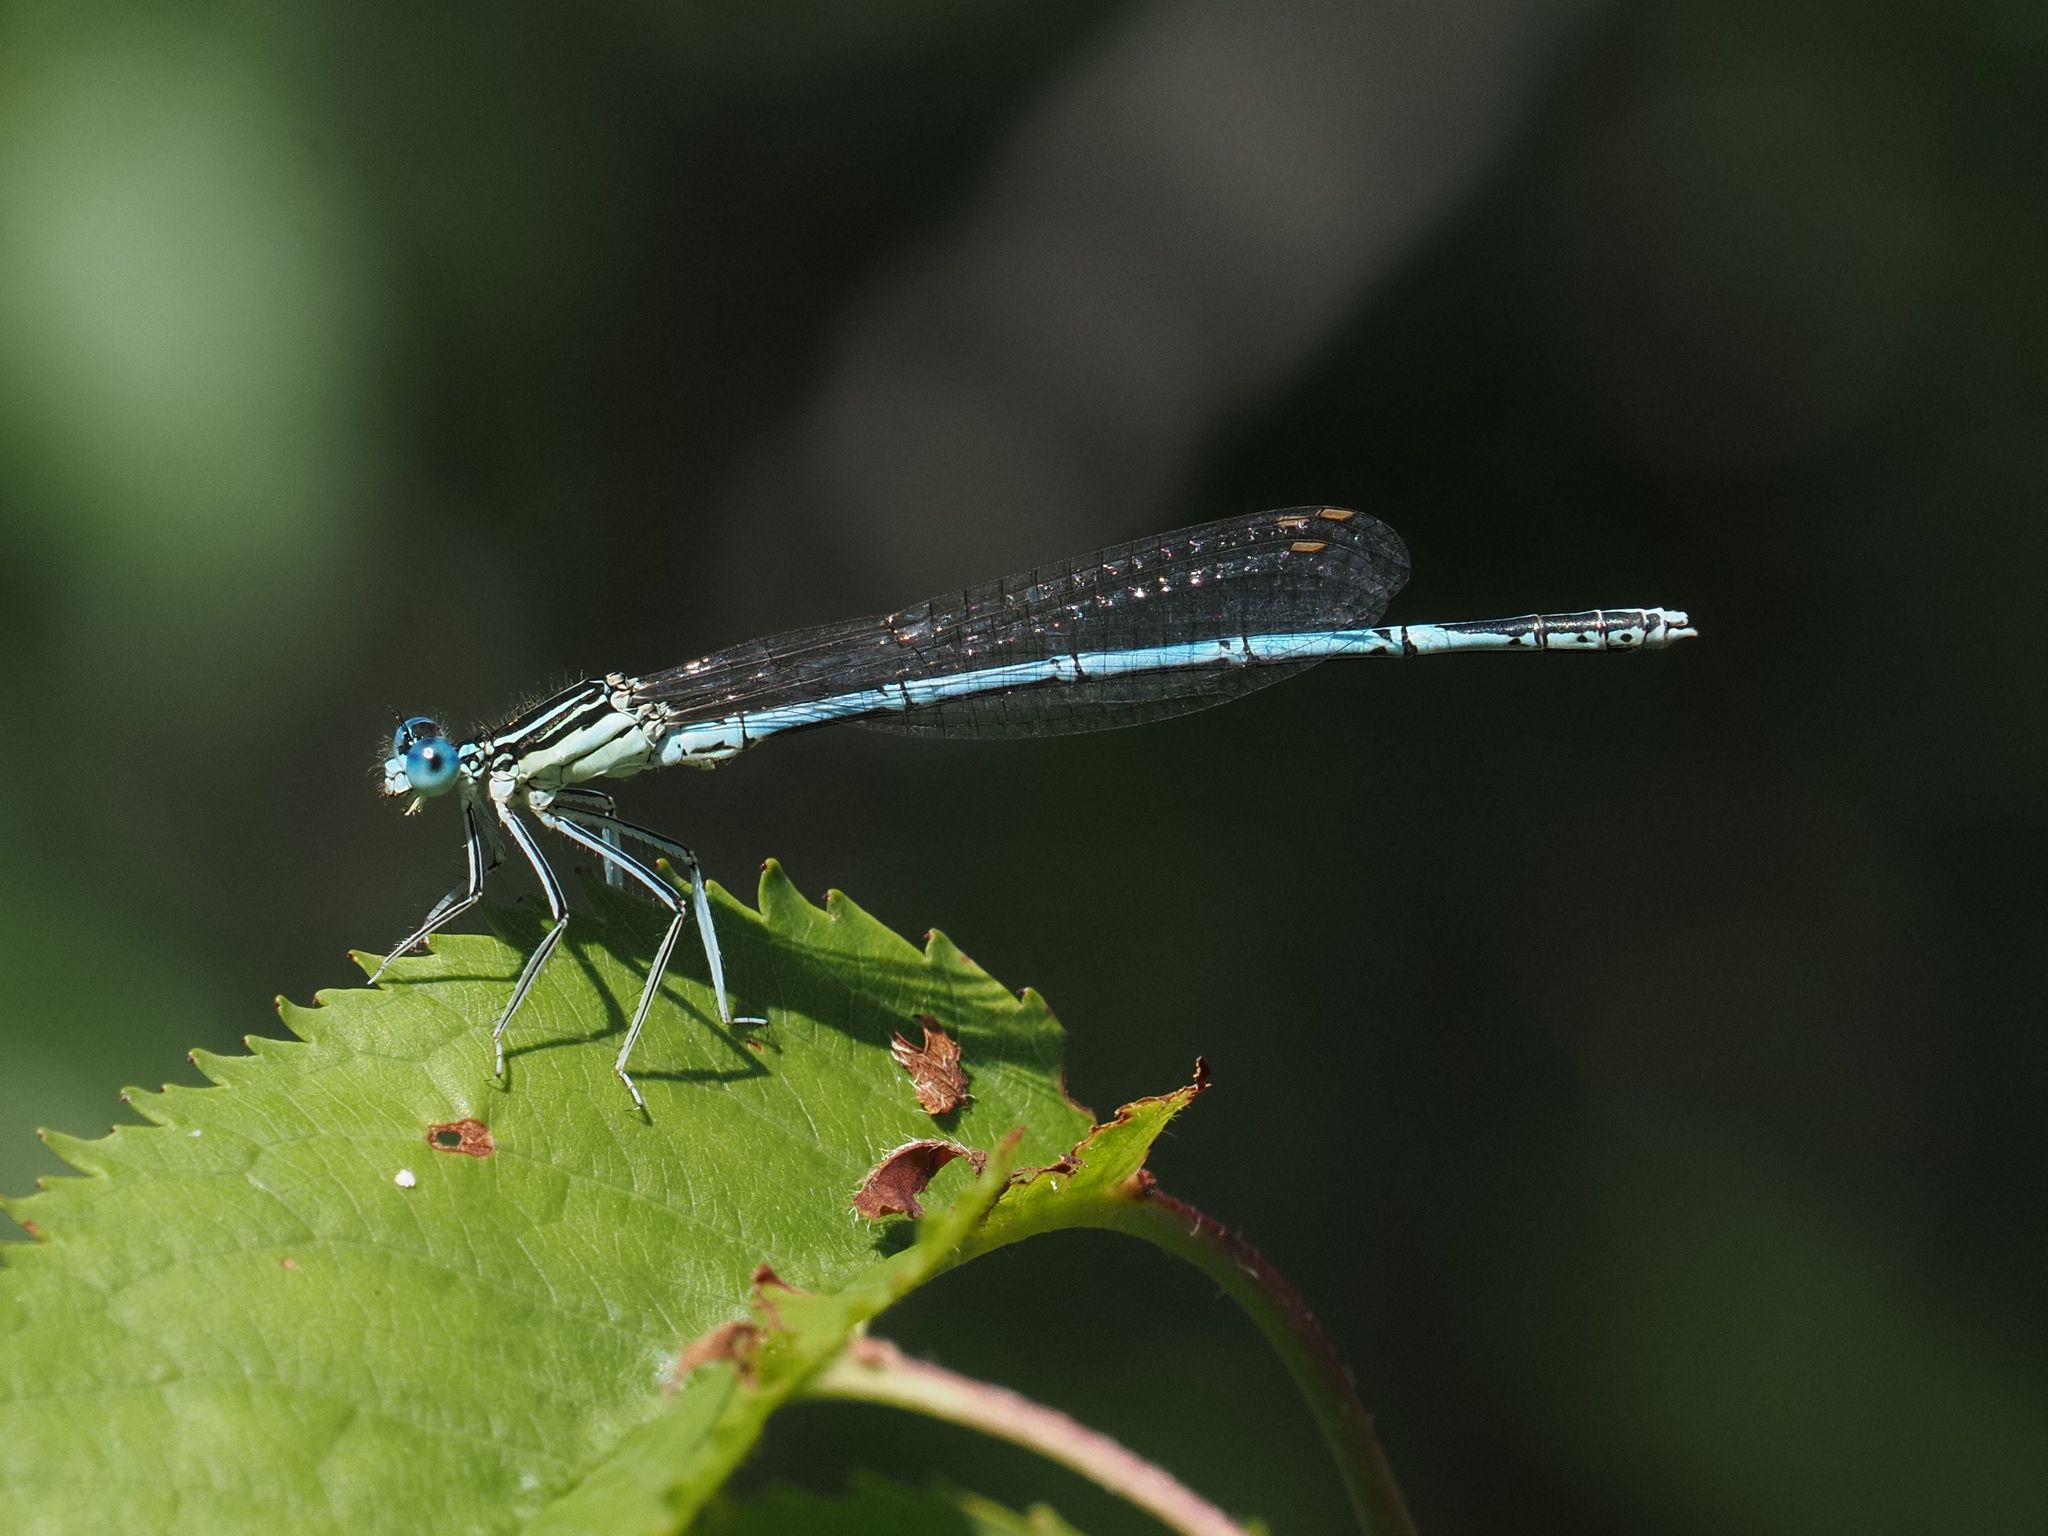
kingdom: Animalia
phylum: Arthropoda
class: Insecta
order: Odonata
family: Platycnemididae
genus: Platycnemis
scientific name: Platycnemis pennipes
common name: White-legged damselfly
